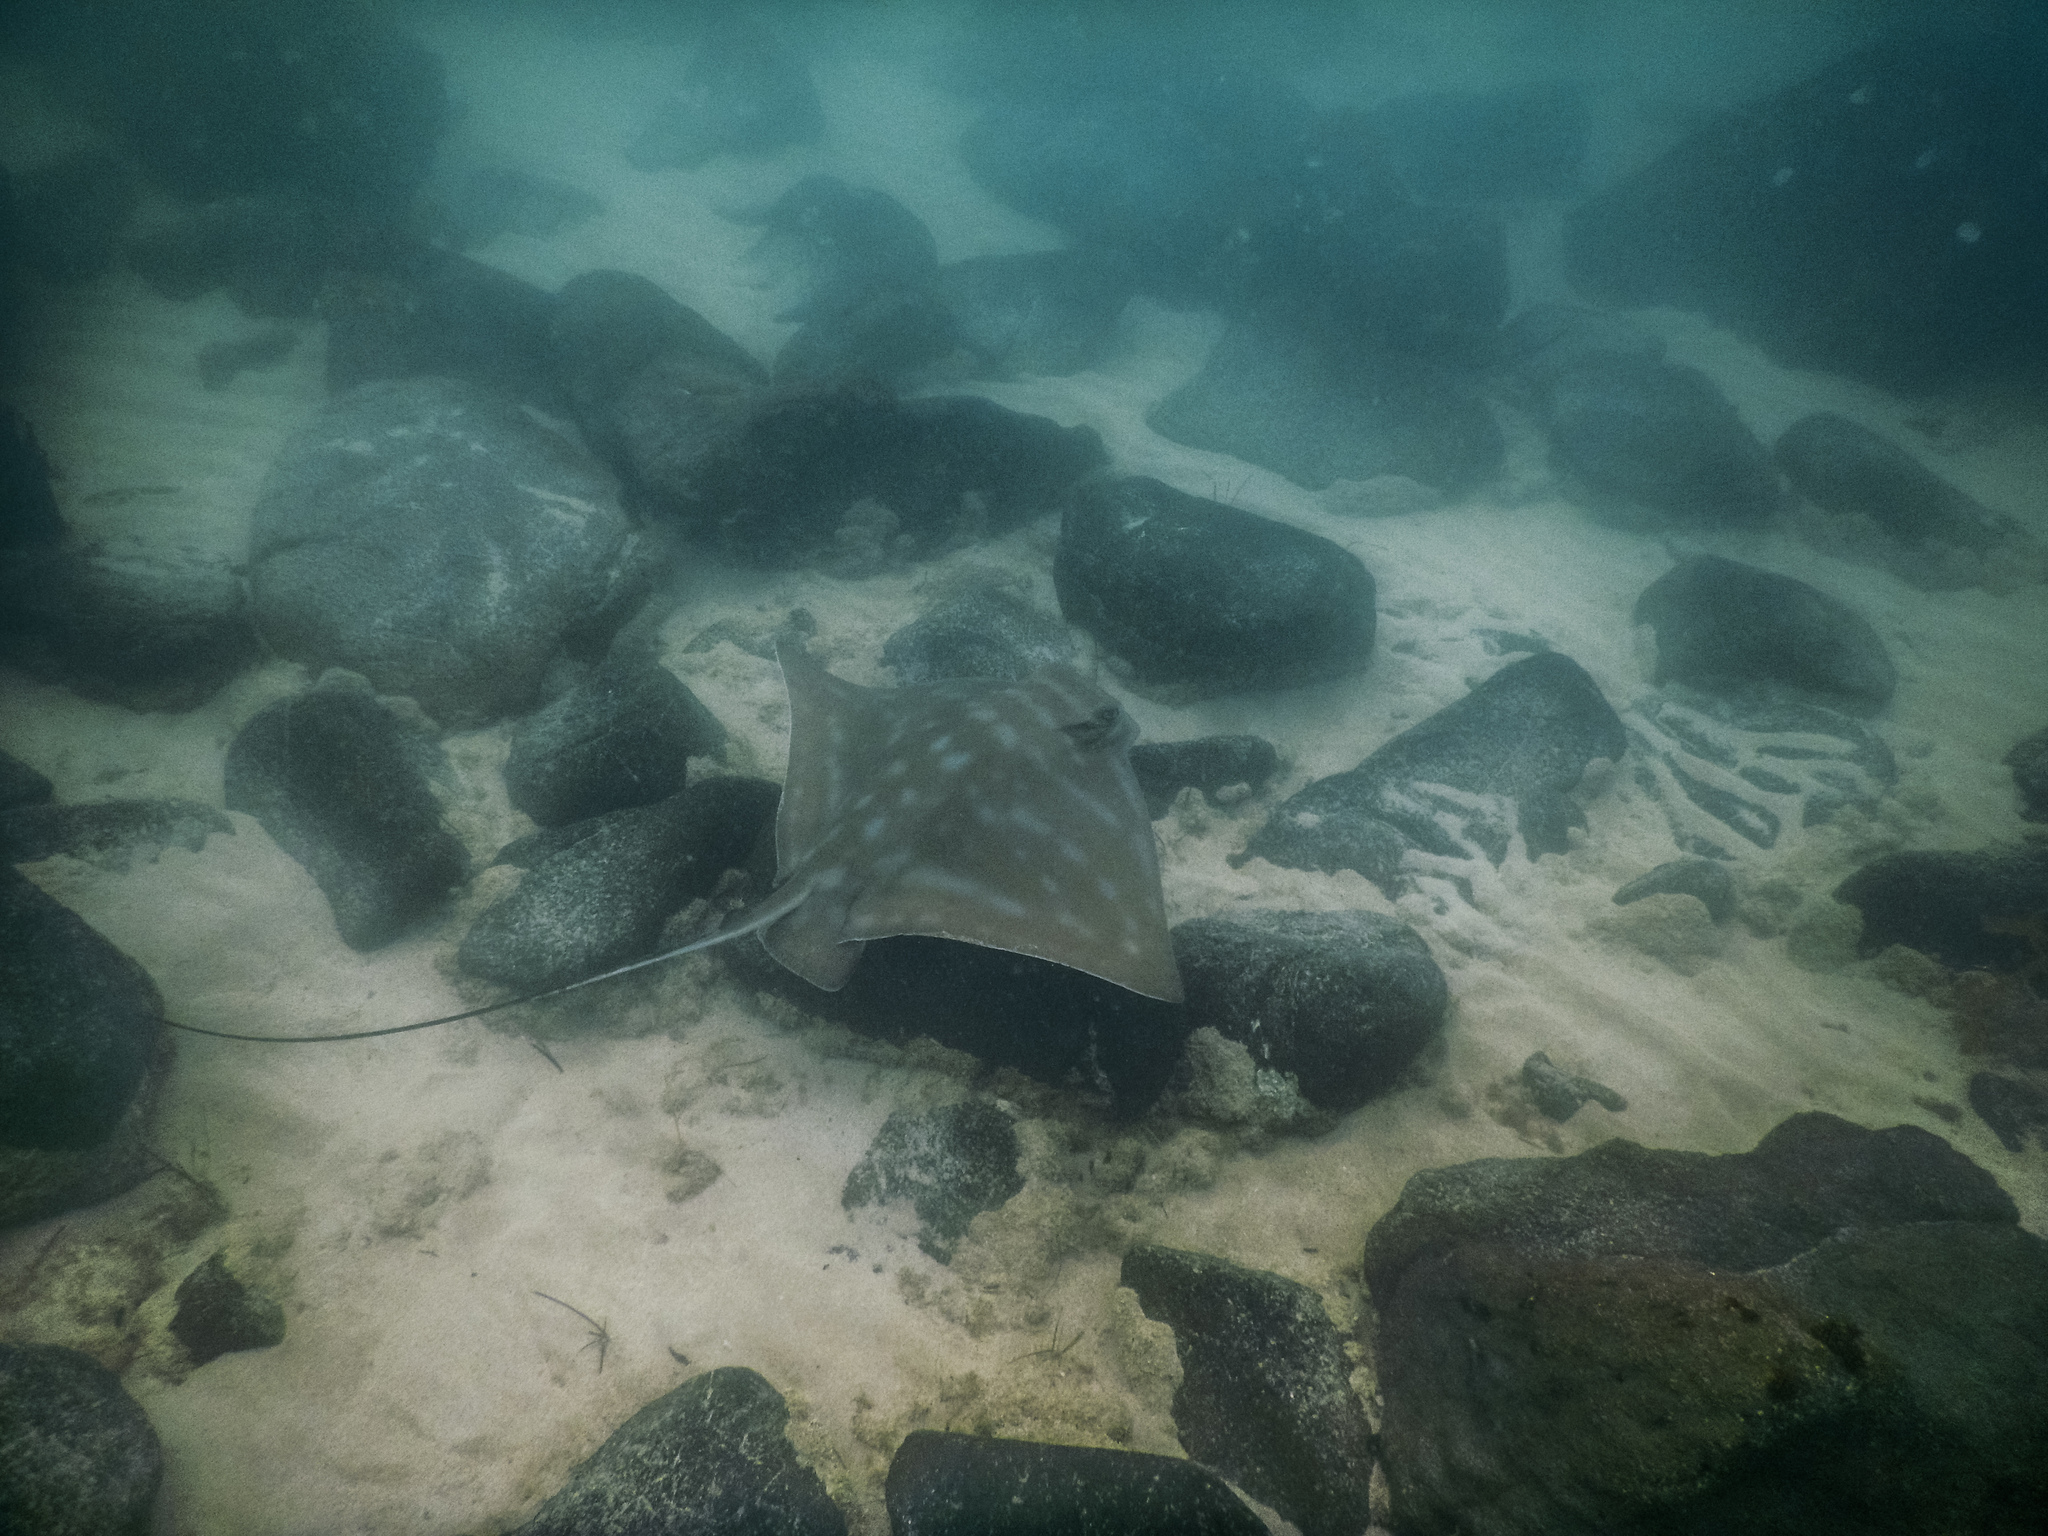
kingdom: Animalia
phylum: Chordata
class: Elasmobranchii
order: Myliobatiformes
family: Myliobatidae
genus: Myliobatis
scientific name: Myliobatis tenuicaudatus
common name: Eagle ray
